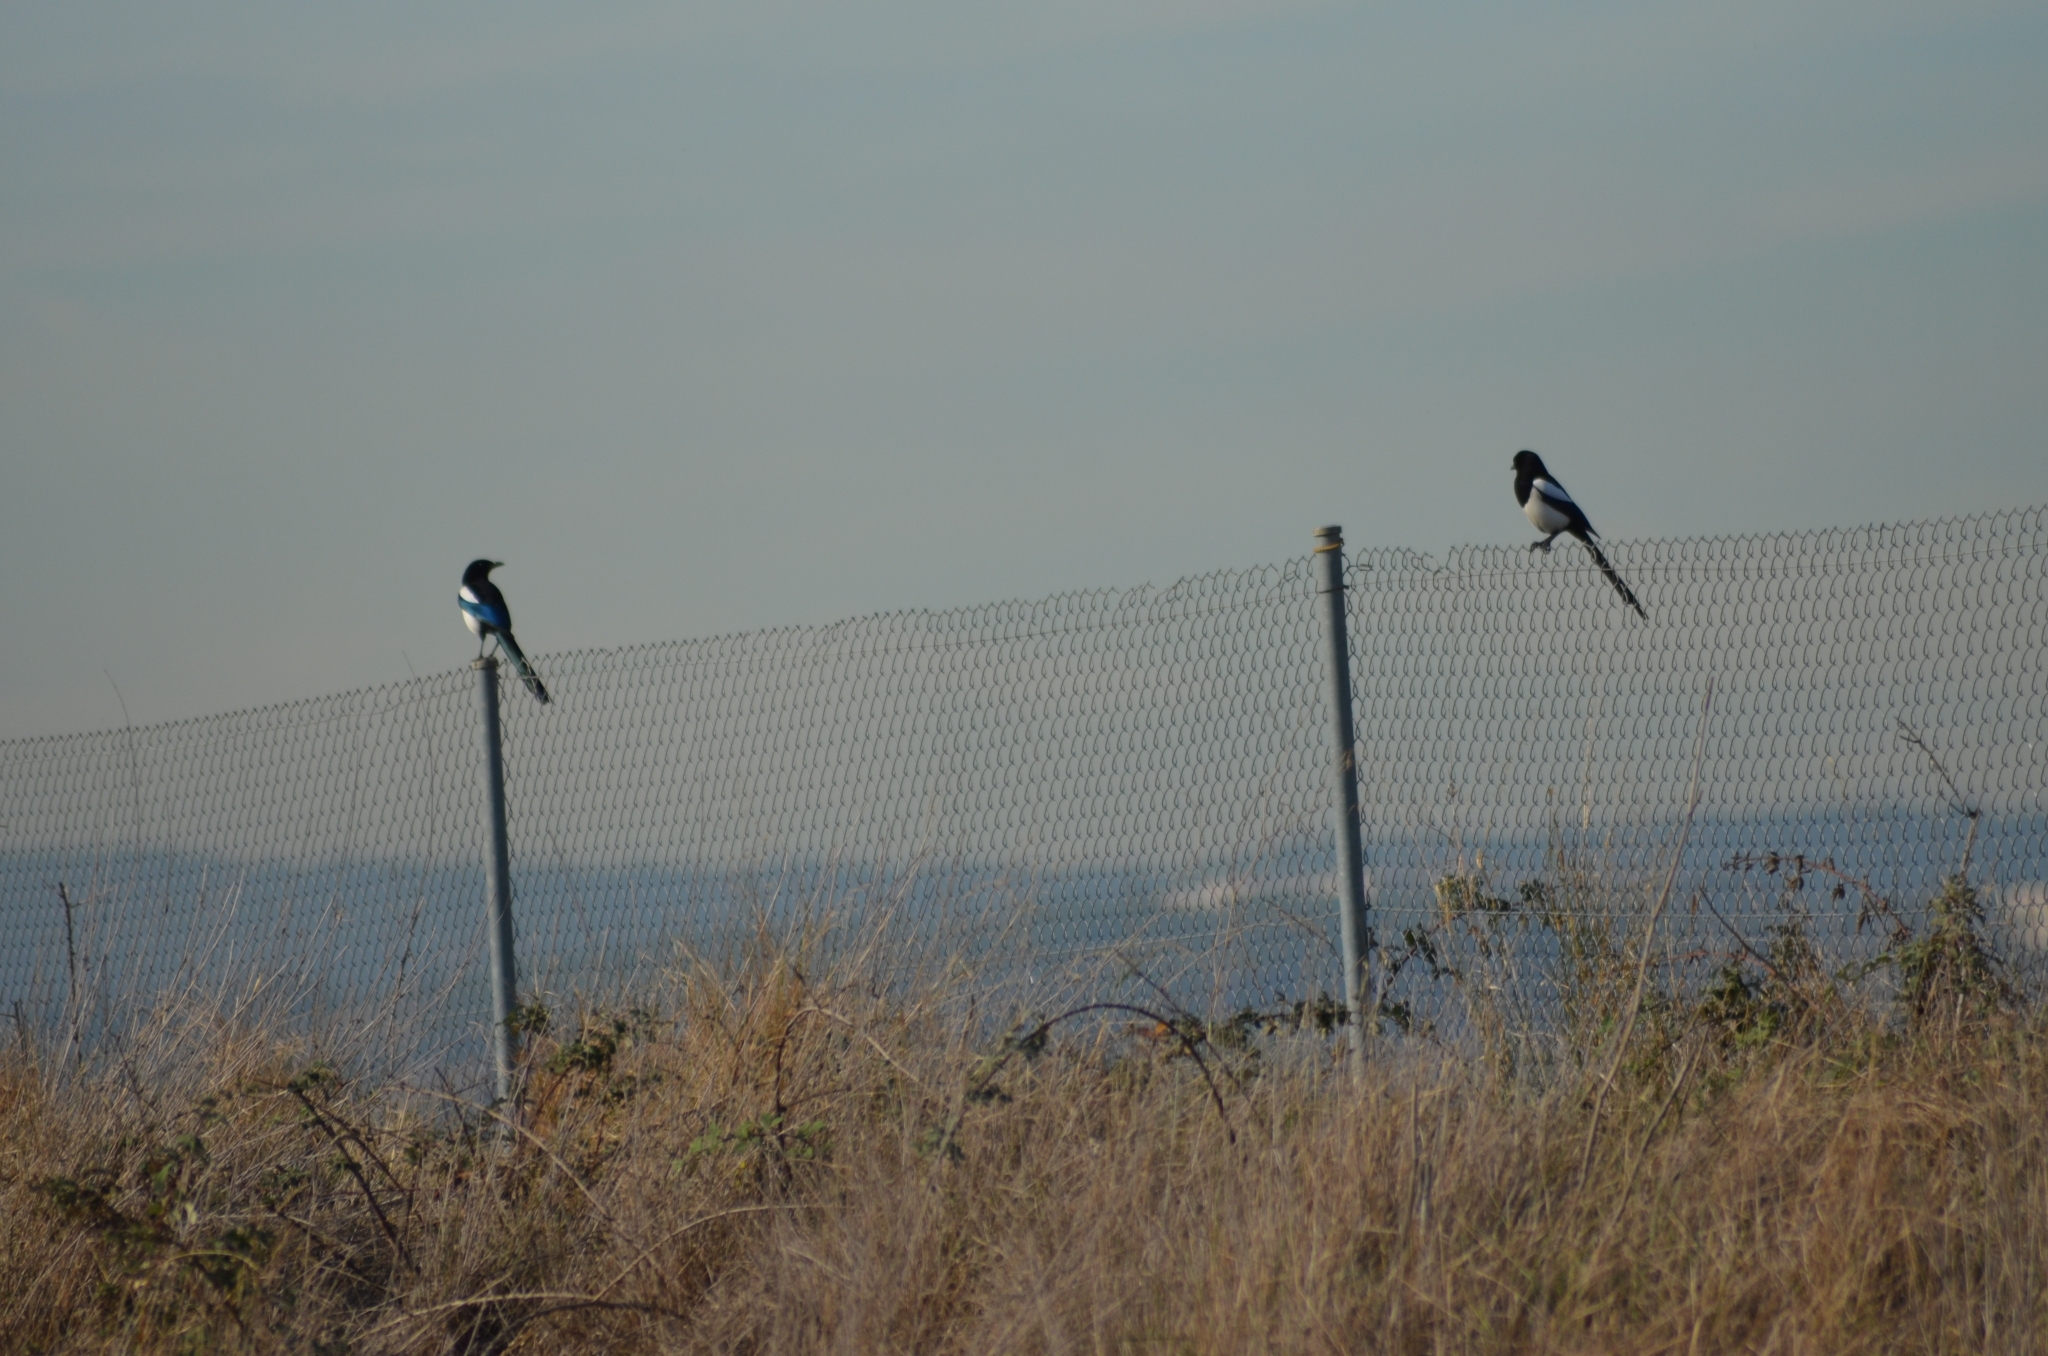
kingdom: Animalia
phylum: Chordata
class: Aves
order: Passeriformes
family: Corvidae
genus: Pica
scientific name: Pica pica
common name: Eurasian magpie
